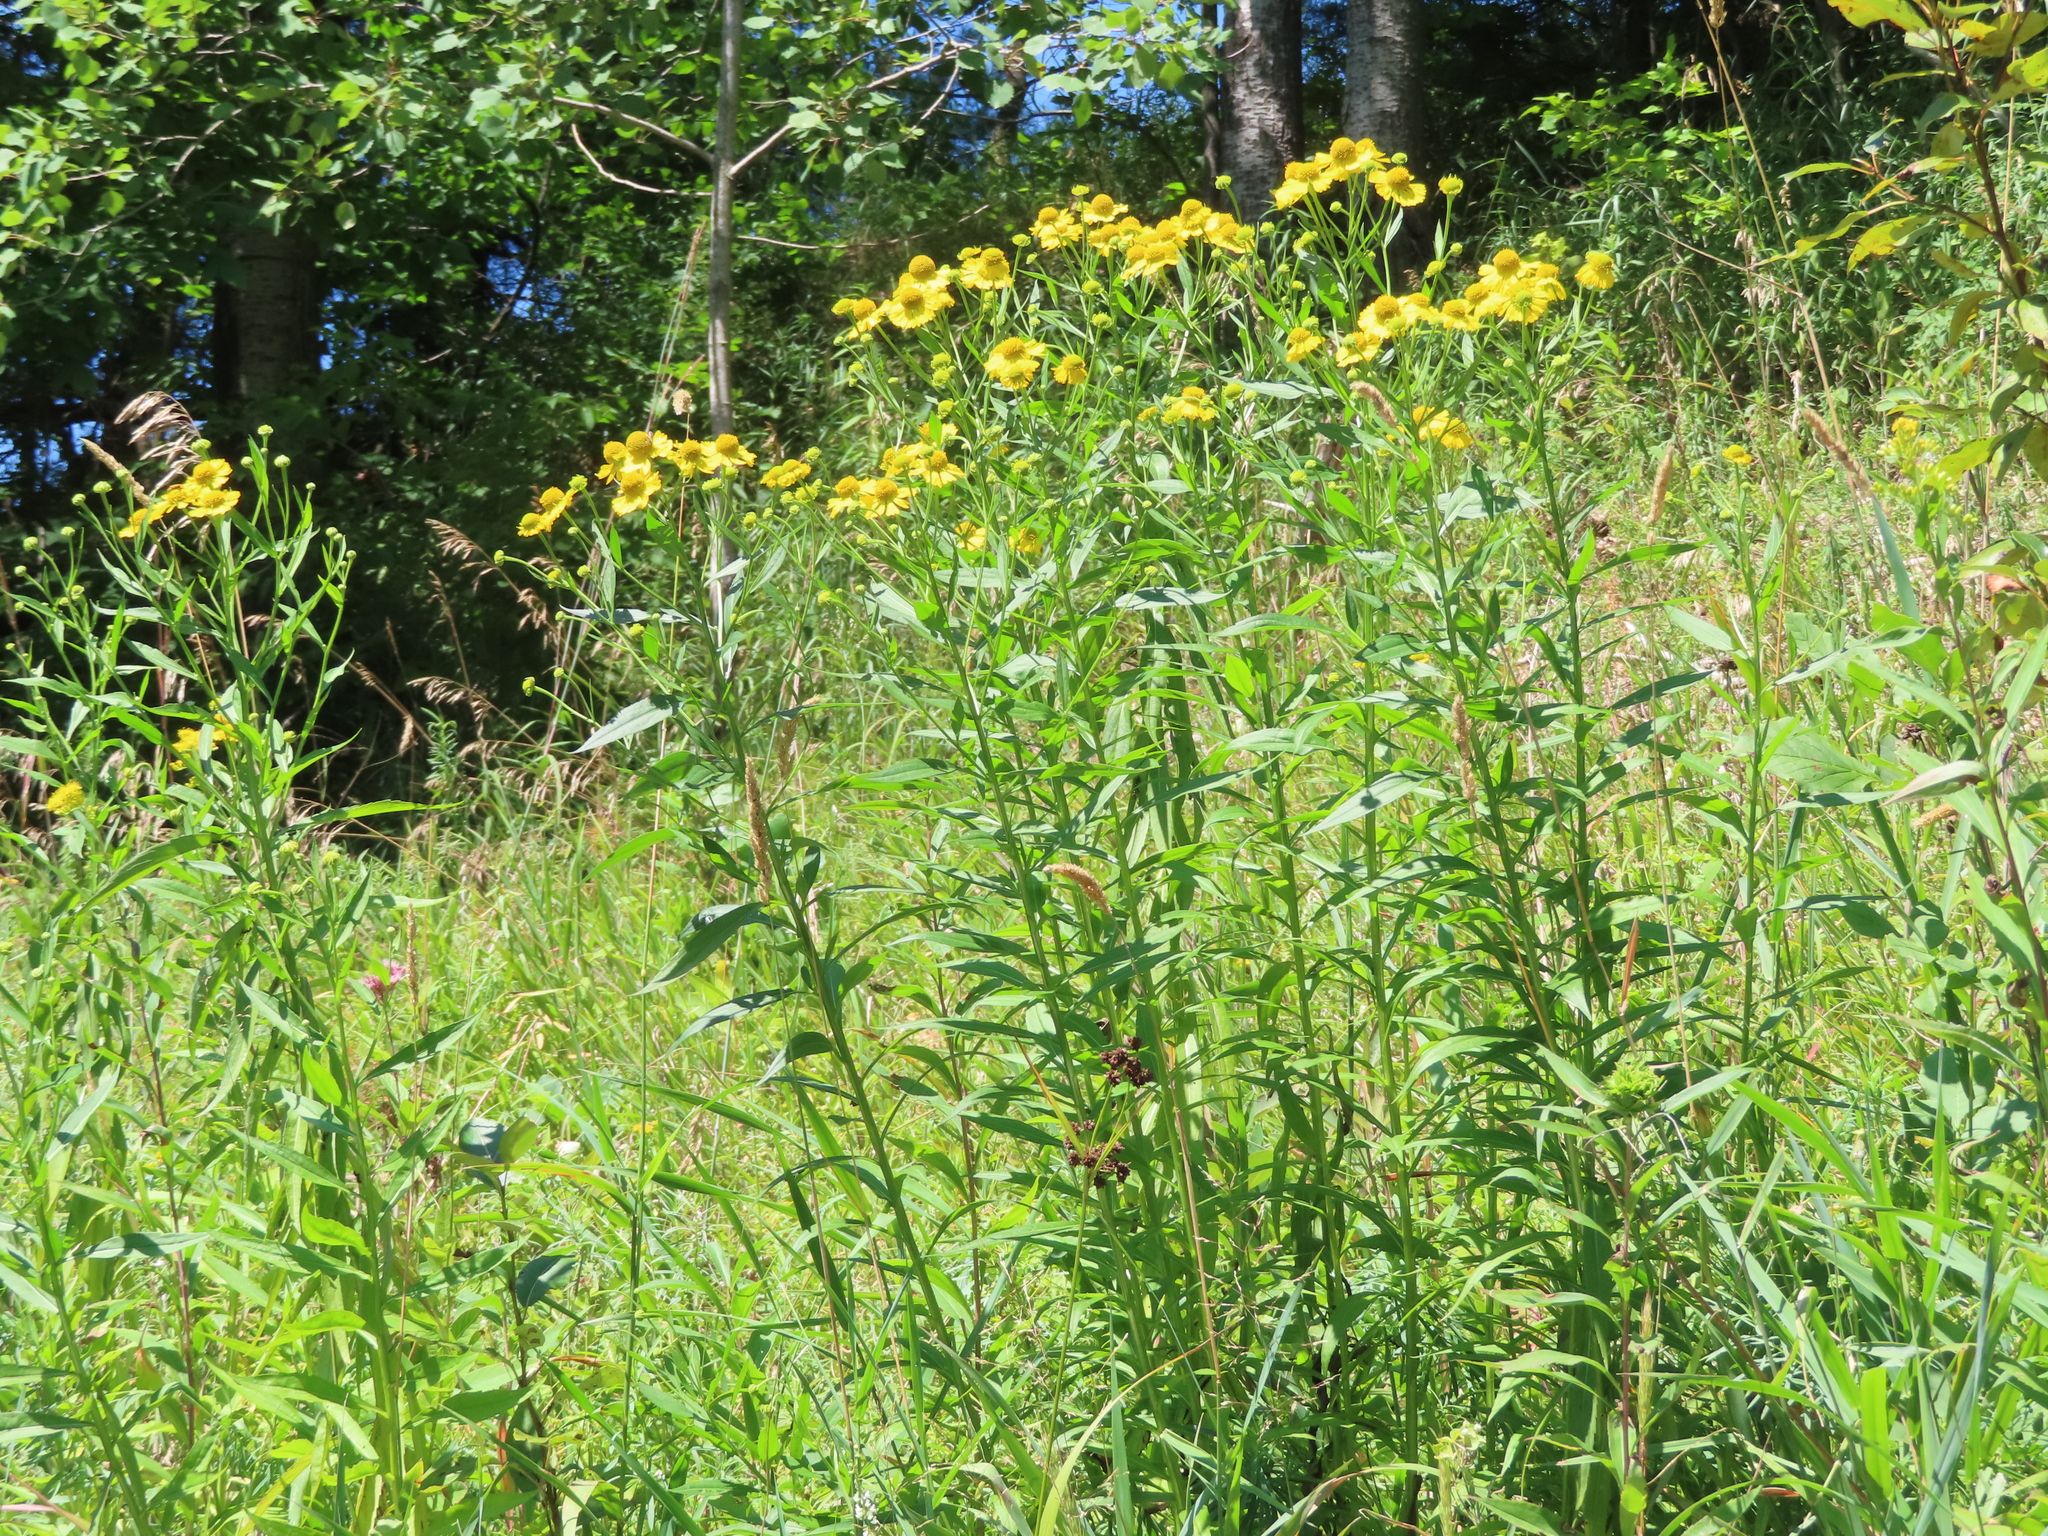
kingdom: Plantae
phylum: Tracheophyta
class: Magnoliopsida
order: Asterales
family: Asteraceae
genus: Helenium
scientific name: Helenium autumnale
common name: Sneezeweed
